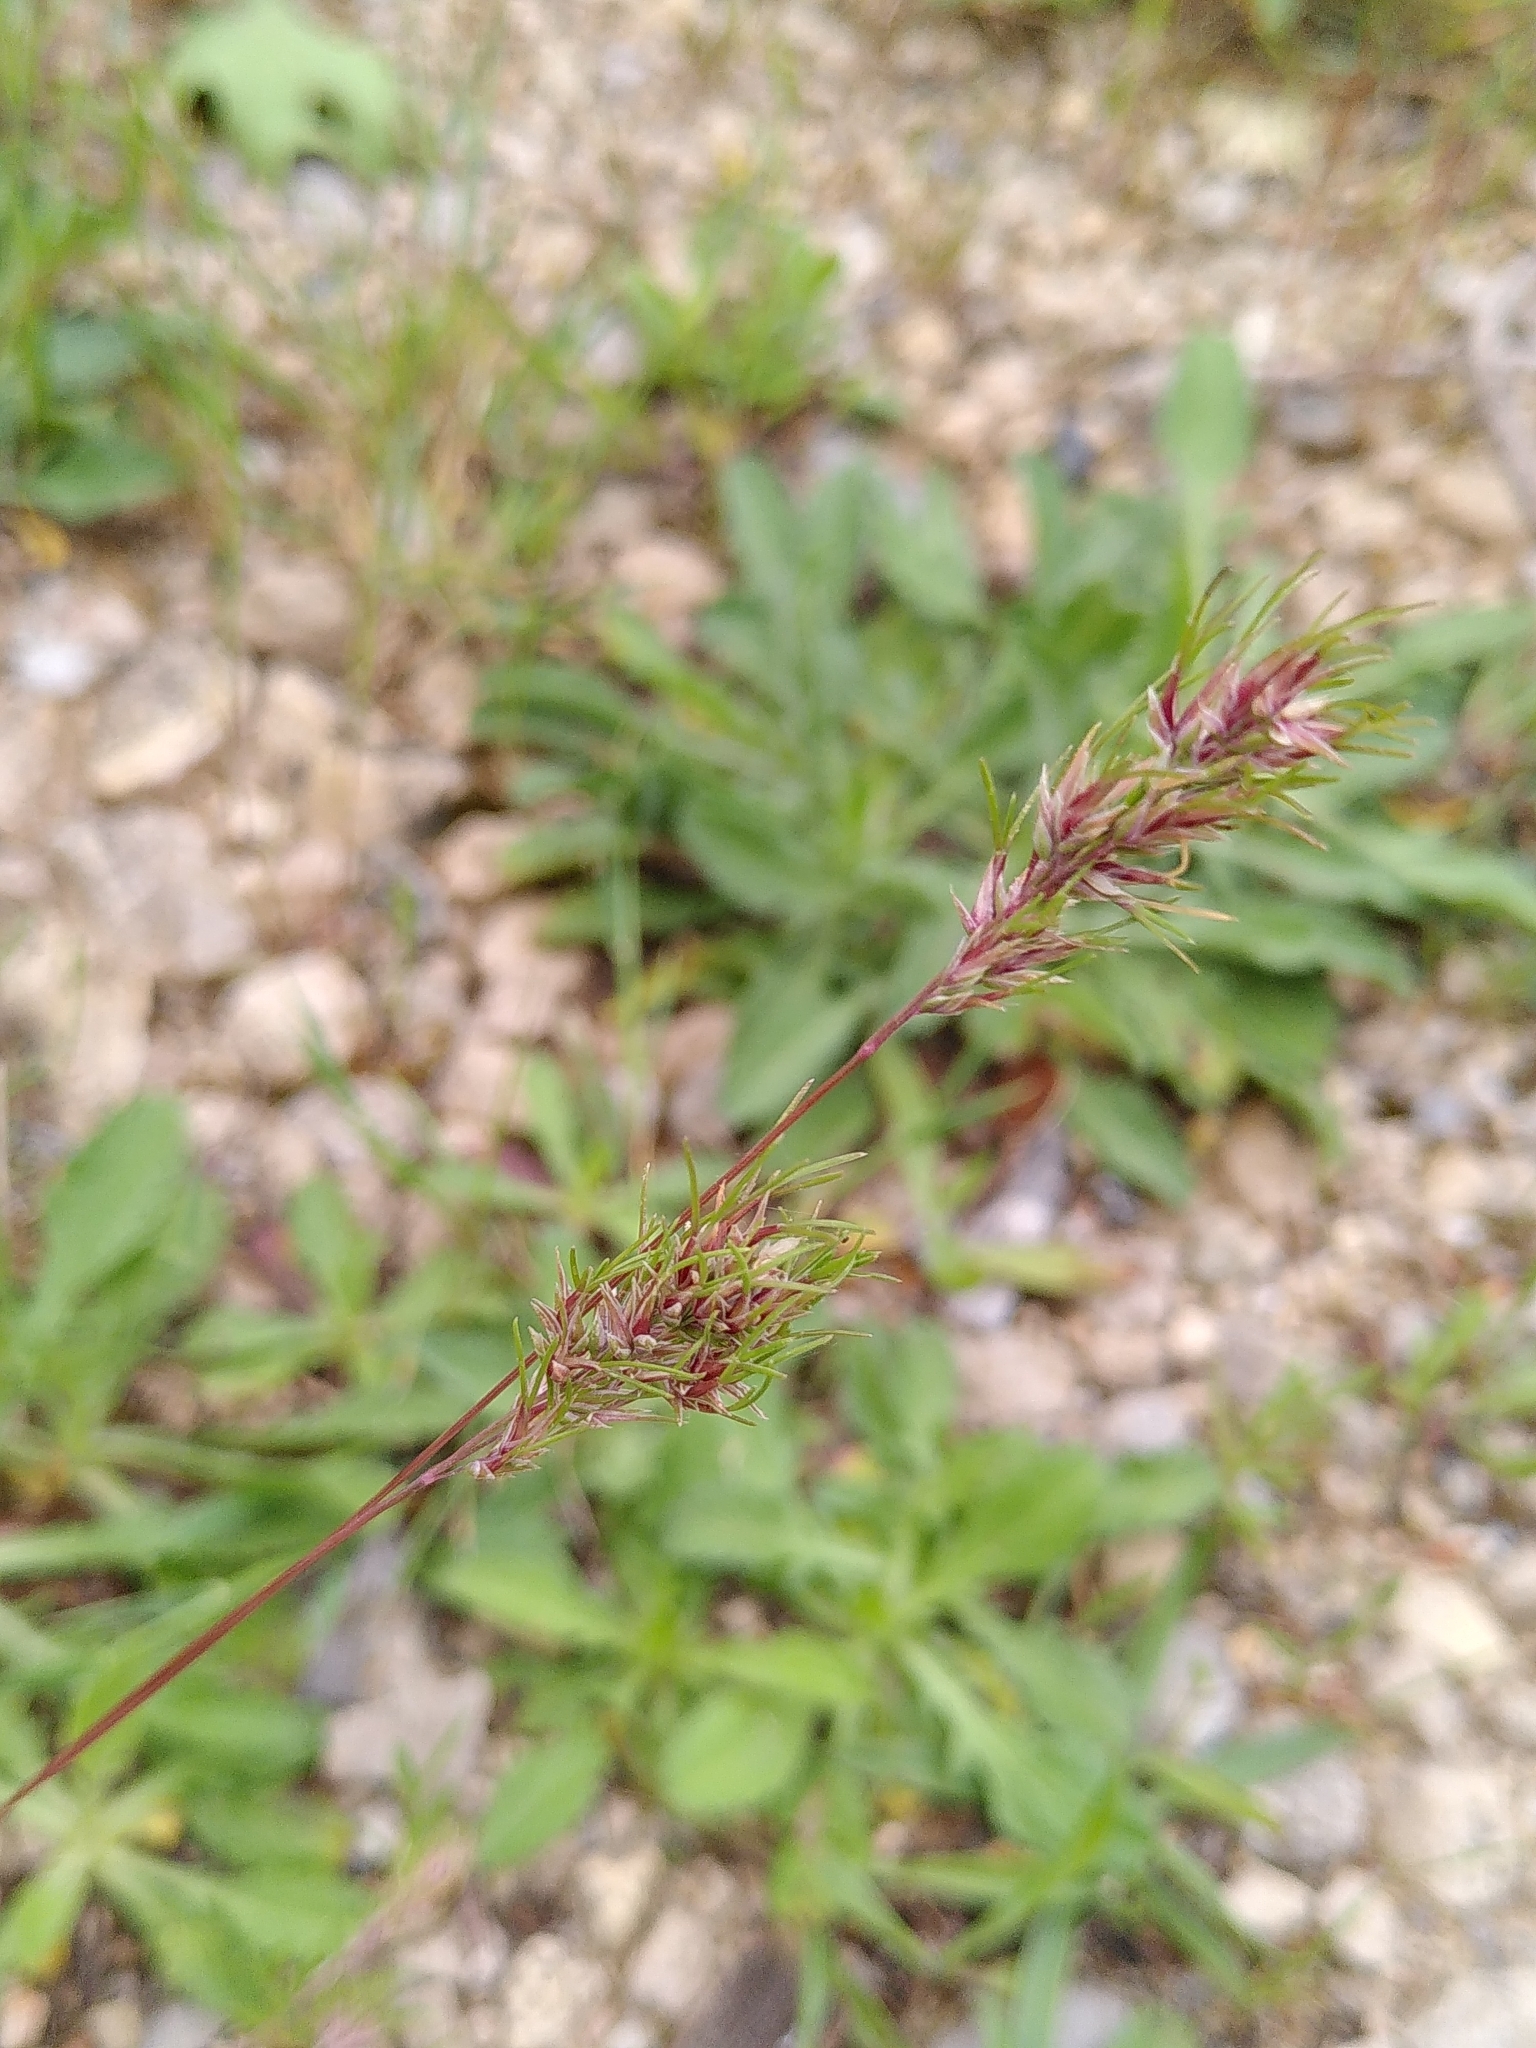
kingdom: Plantae
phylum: Tracheophyta
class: Liliopsida
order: Poales
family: Poaceae
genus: Poa
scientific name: Poa bulbosa
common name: Bulbous bluegrass
